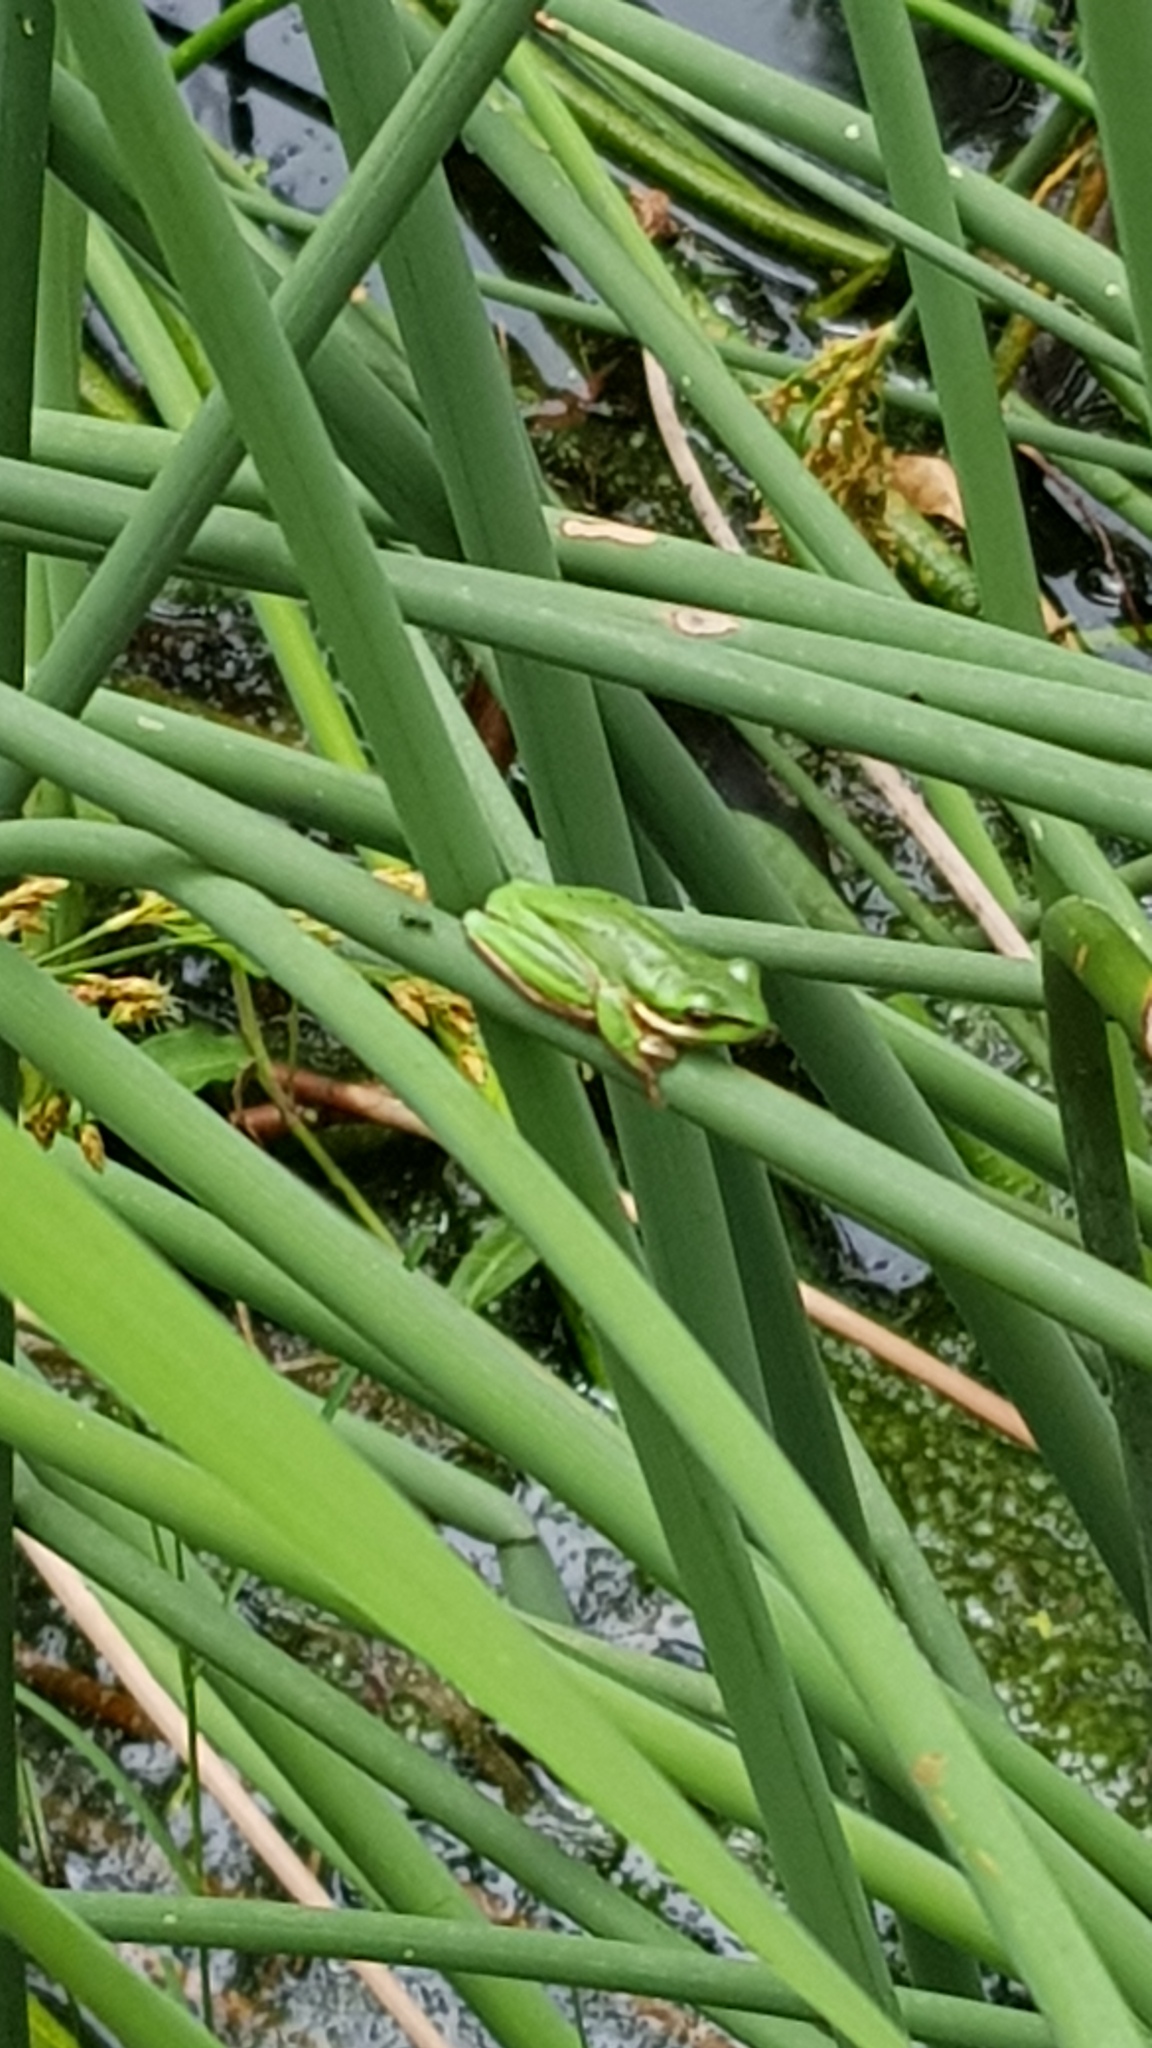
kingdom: Animalia
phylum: Chordata
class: Amphibia
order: Anura
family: Pelodryadidae
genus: Litoria
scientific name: Litoria fallax
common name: Eastern dwarf treefrog
